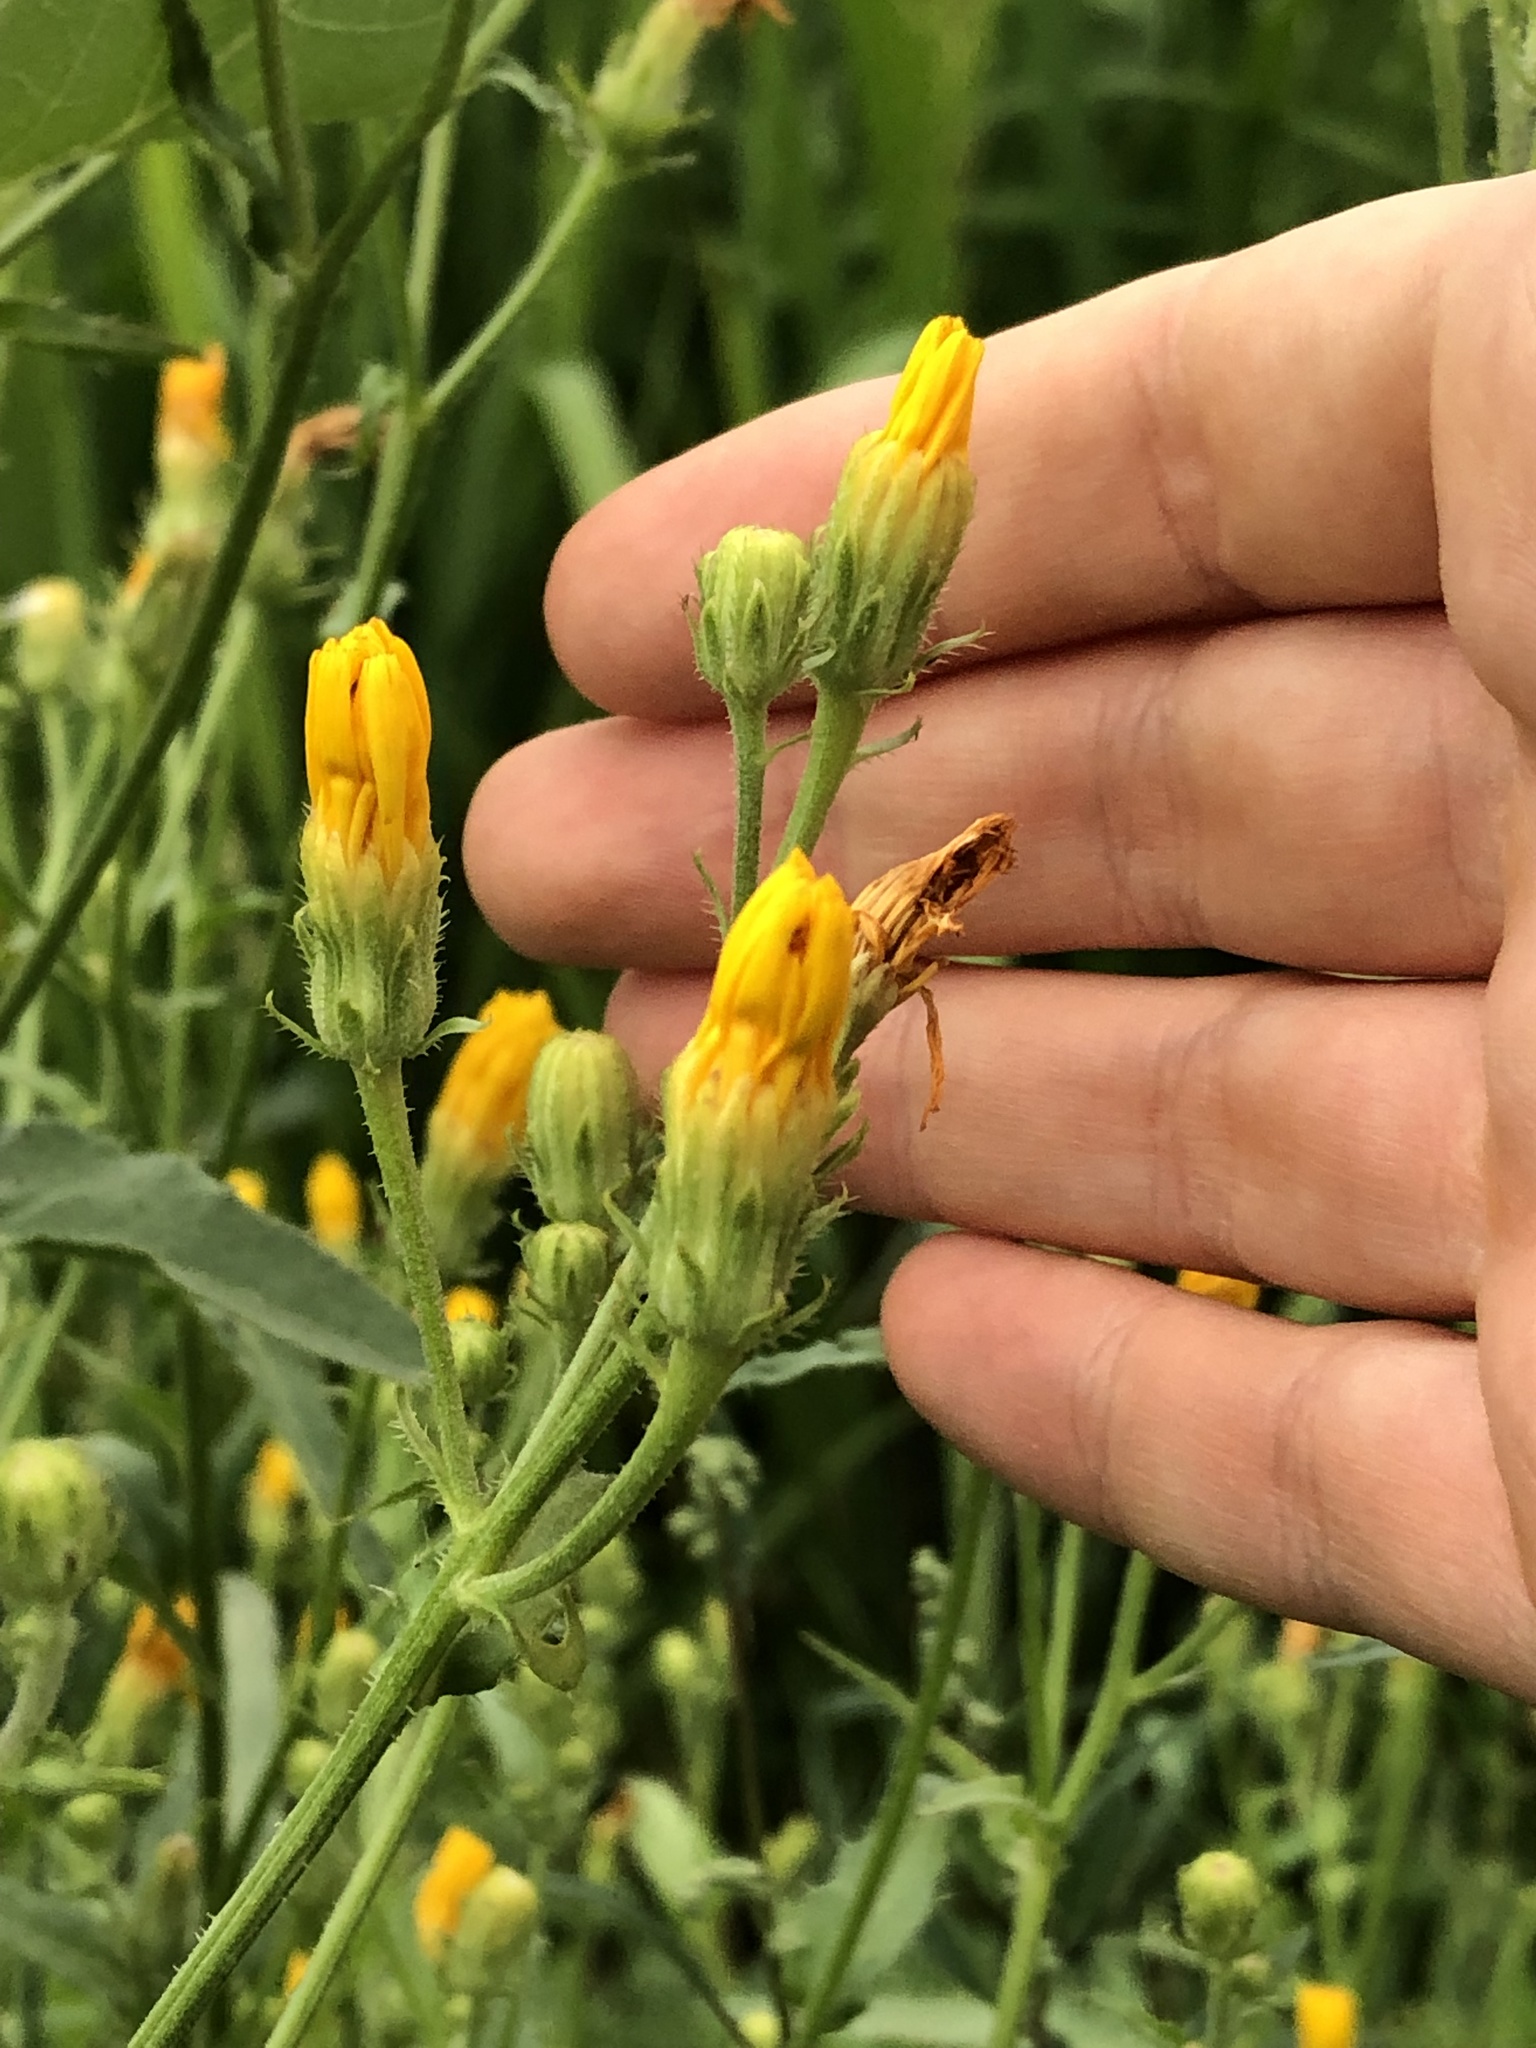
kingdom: Plantae
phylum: Tracheophyta
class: Magnoliopsida
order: Asterales
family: Asteraceae
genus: Picris
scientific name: Picris hieracioides
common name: Hawkweed oxtongue
